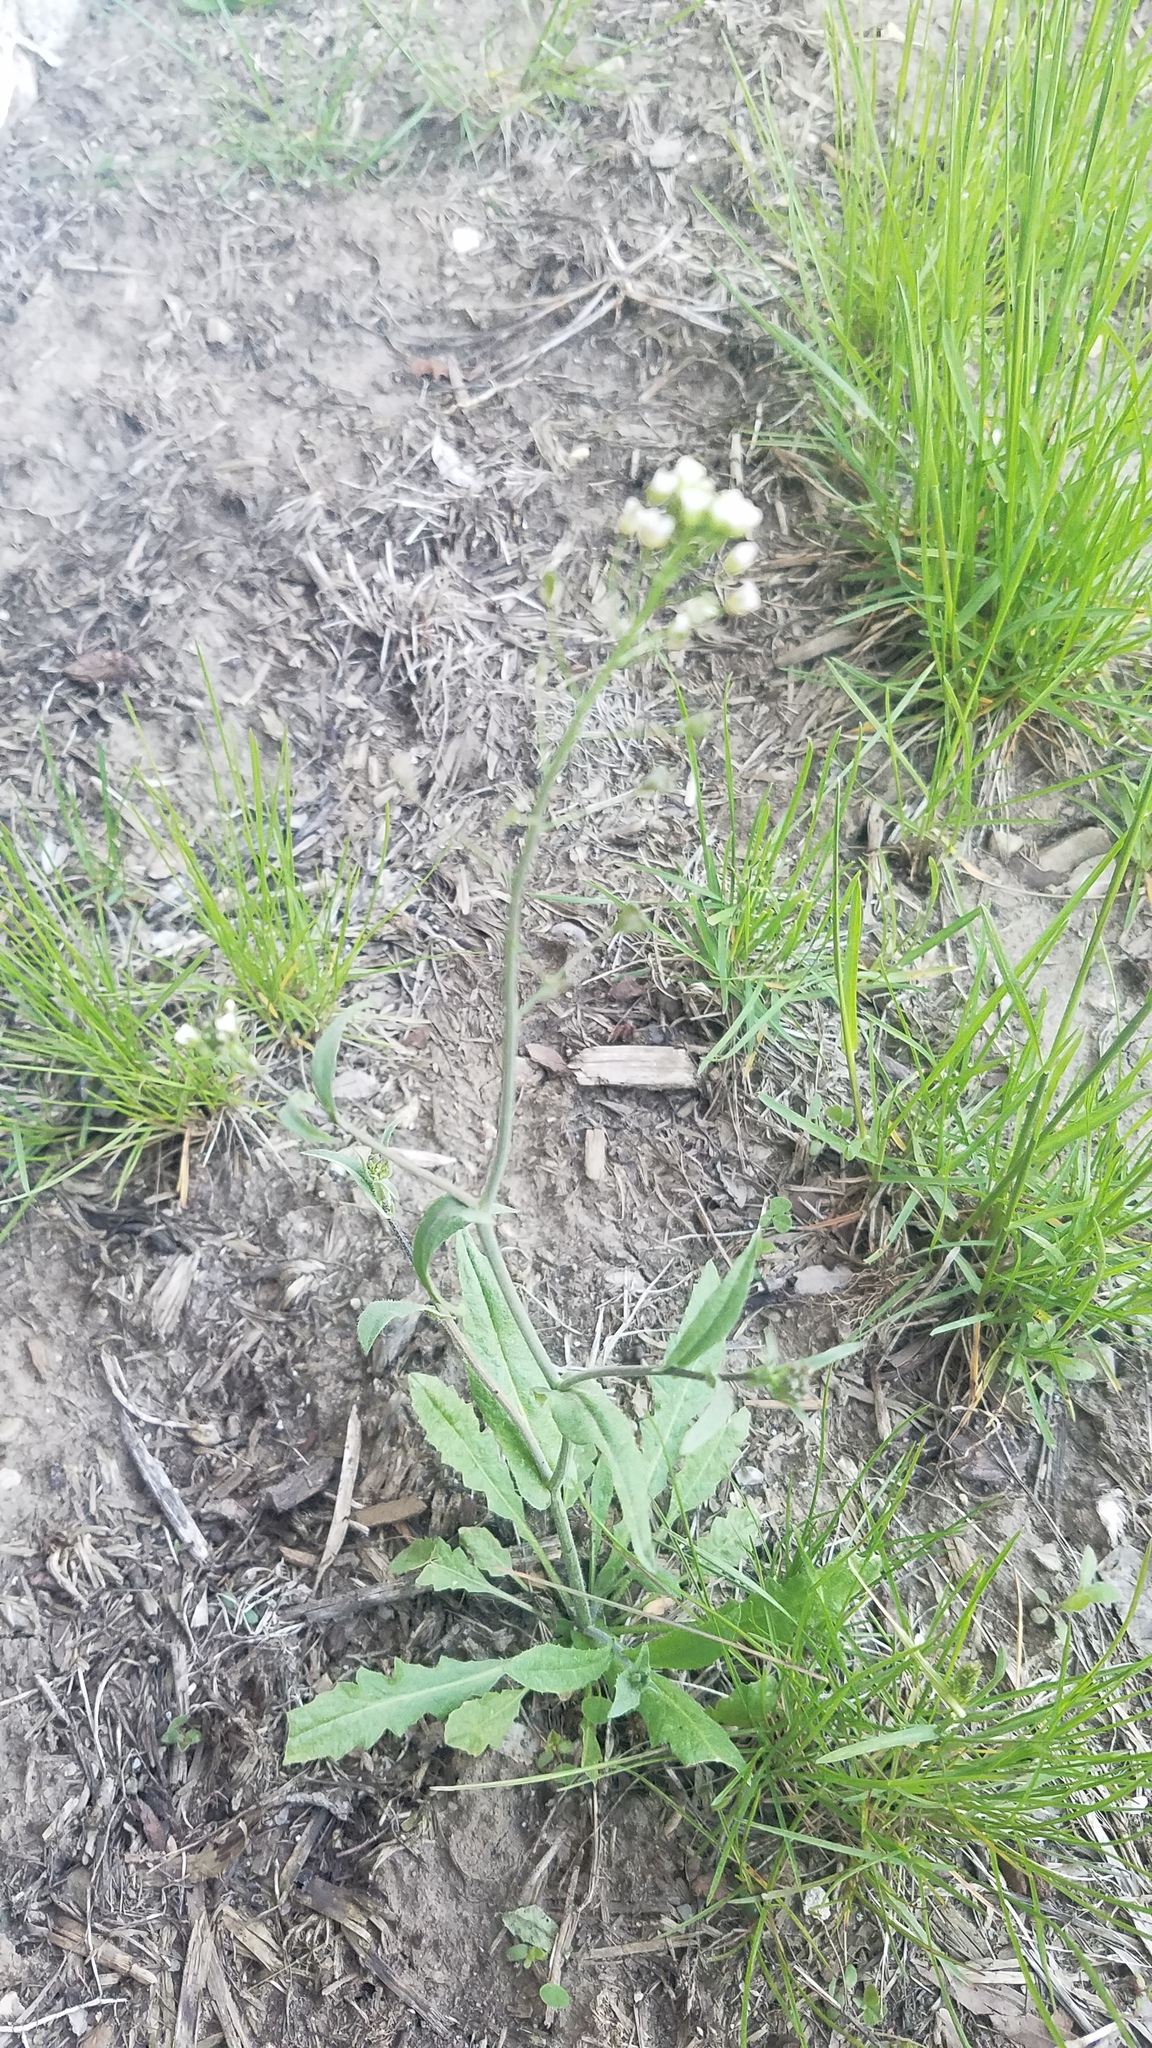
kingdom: Plantae
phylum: Tracheophyta
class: Magnoliopsida
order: Brassicales
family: Brassicaceae
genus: Capsella
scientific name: Capsella bursa-pastoris
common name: Shepherd's purse
